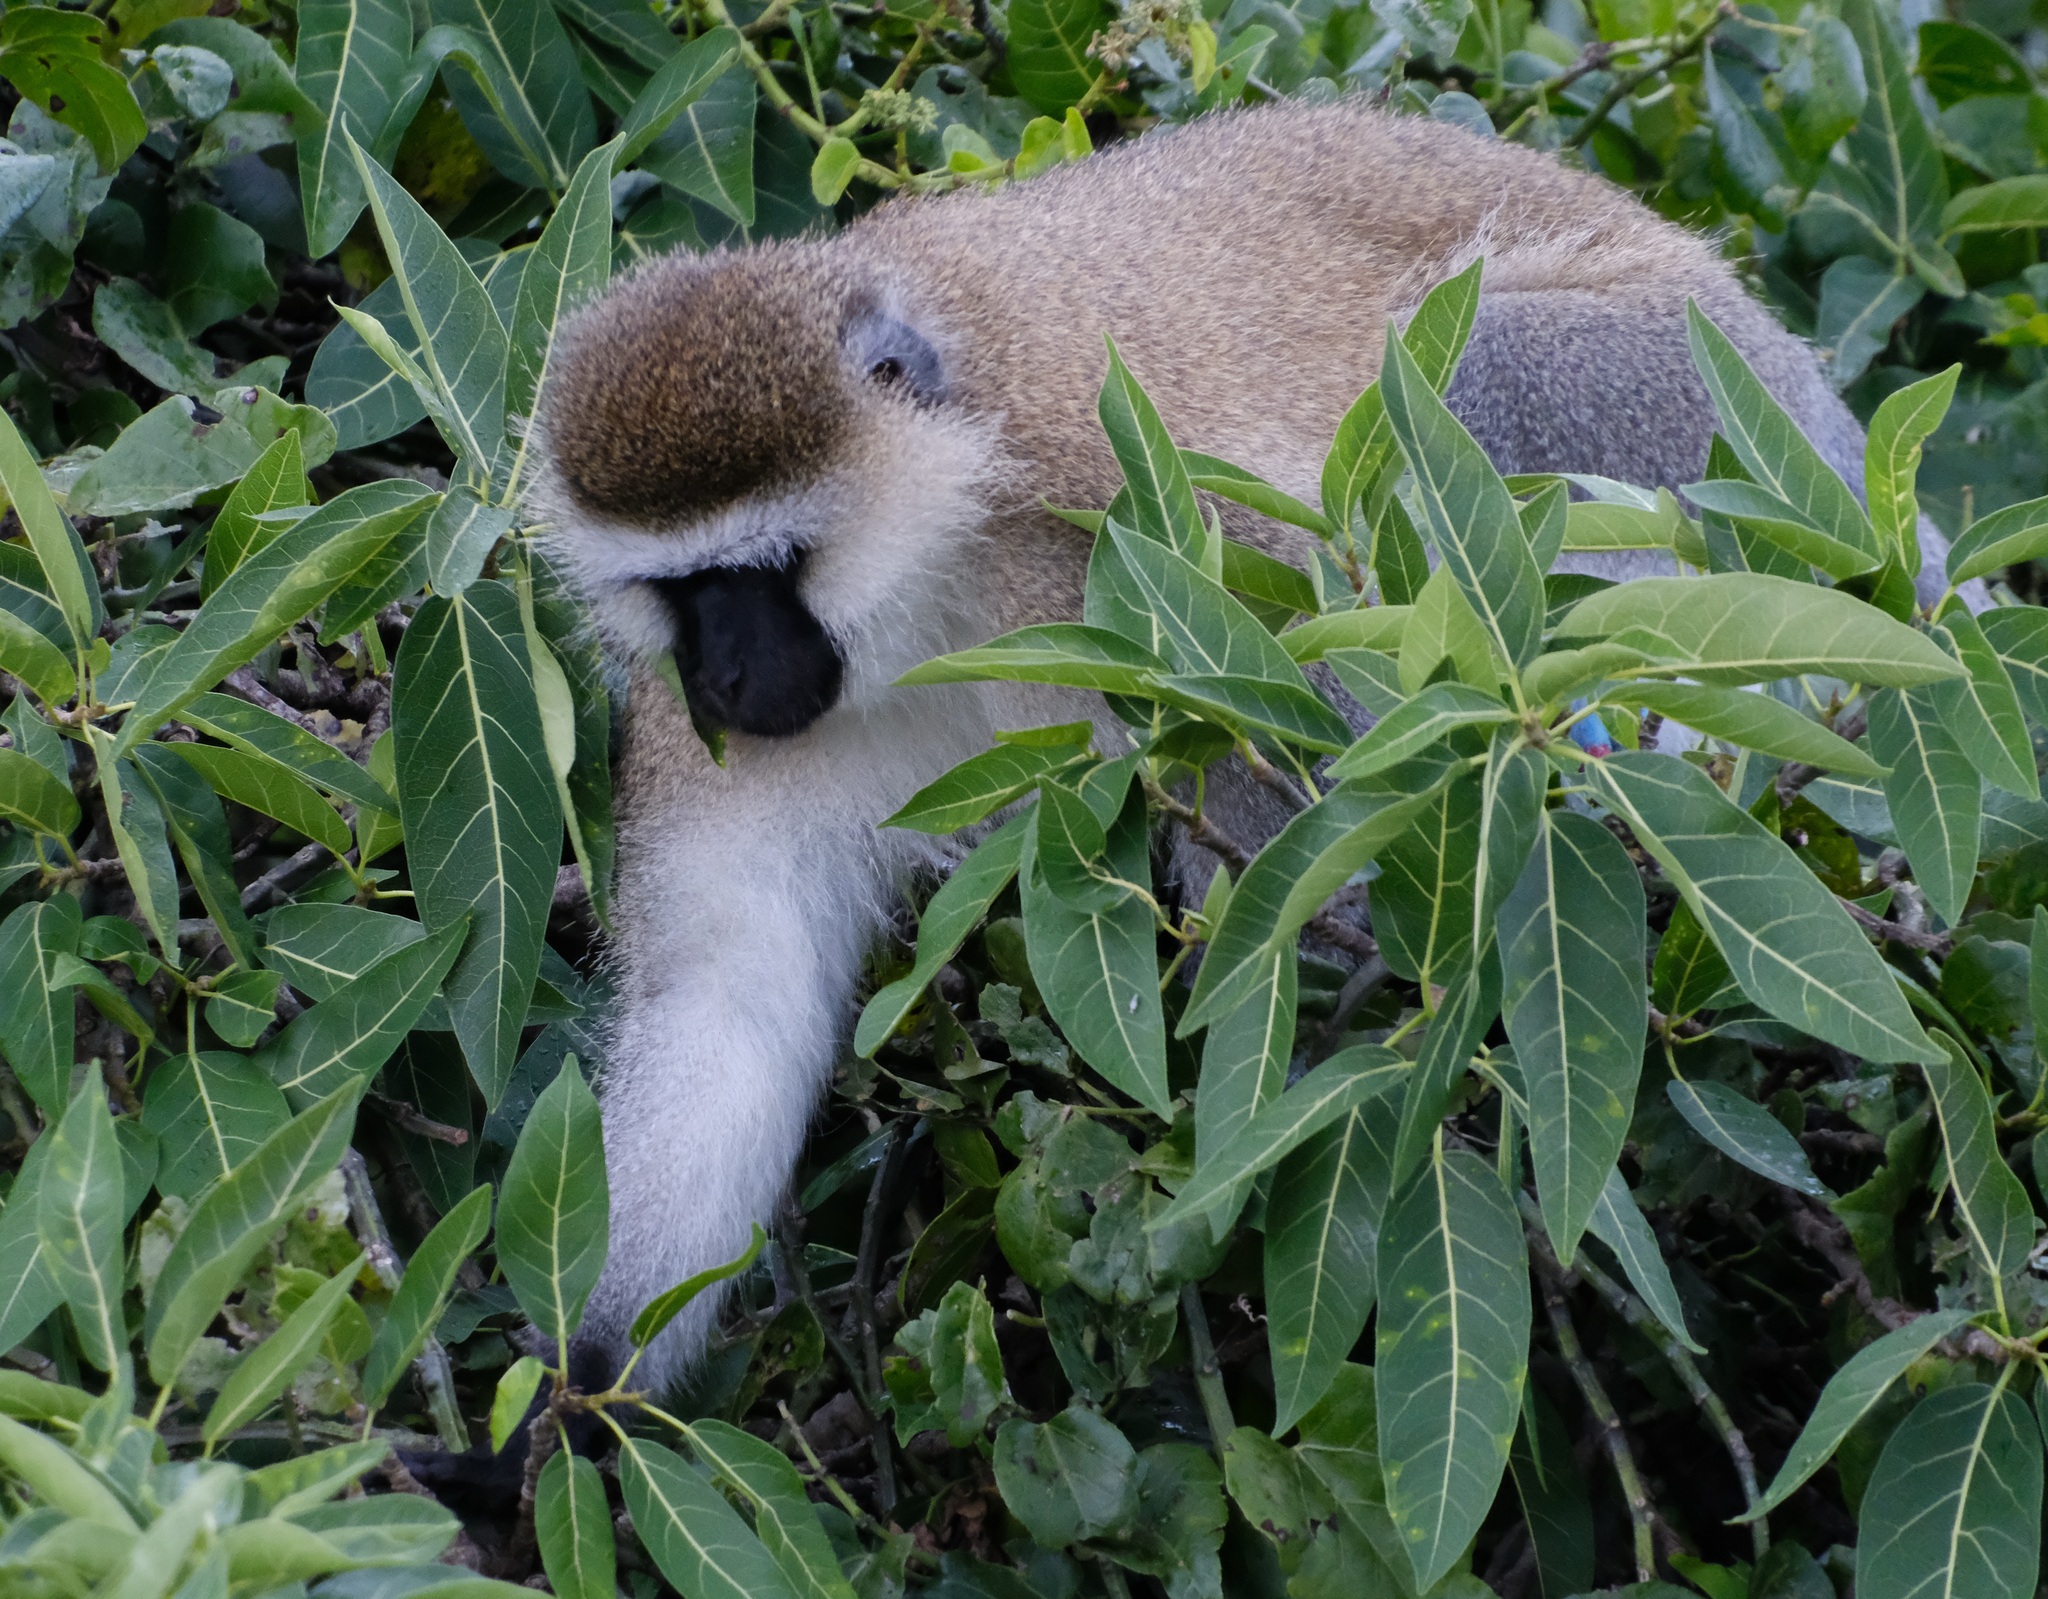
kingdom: Animalia
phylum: Chordata
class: Mammalia
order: Primates
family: Cercopithecidae
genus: Chlorocebus
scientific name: Chlorocebus pygerythrus
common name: Vervet monkey
